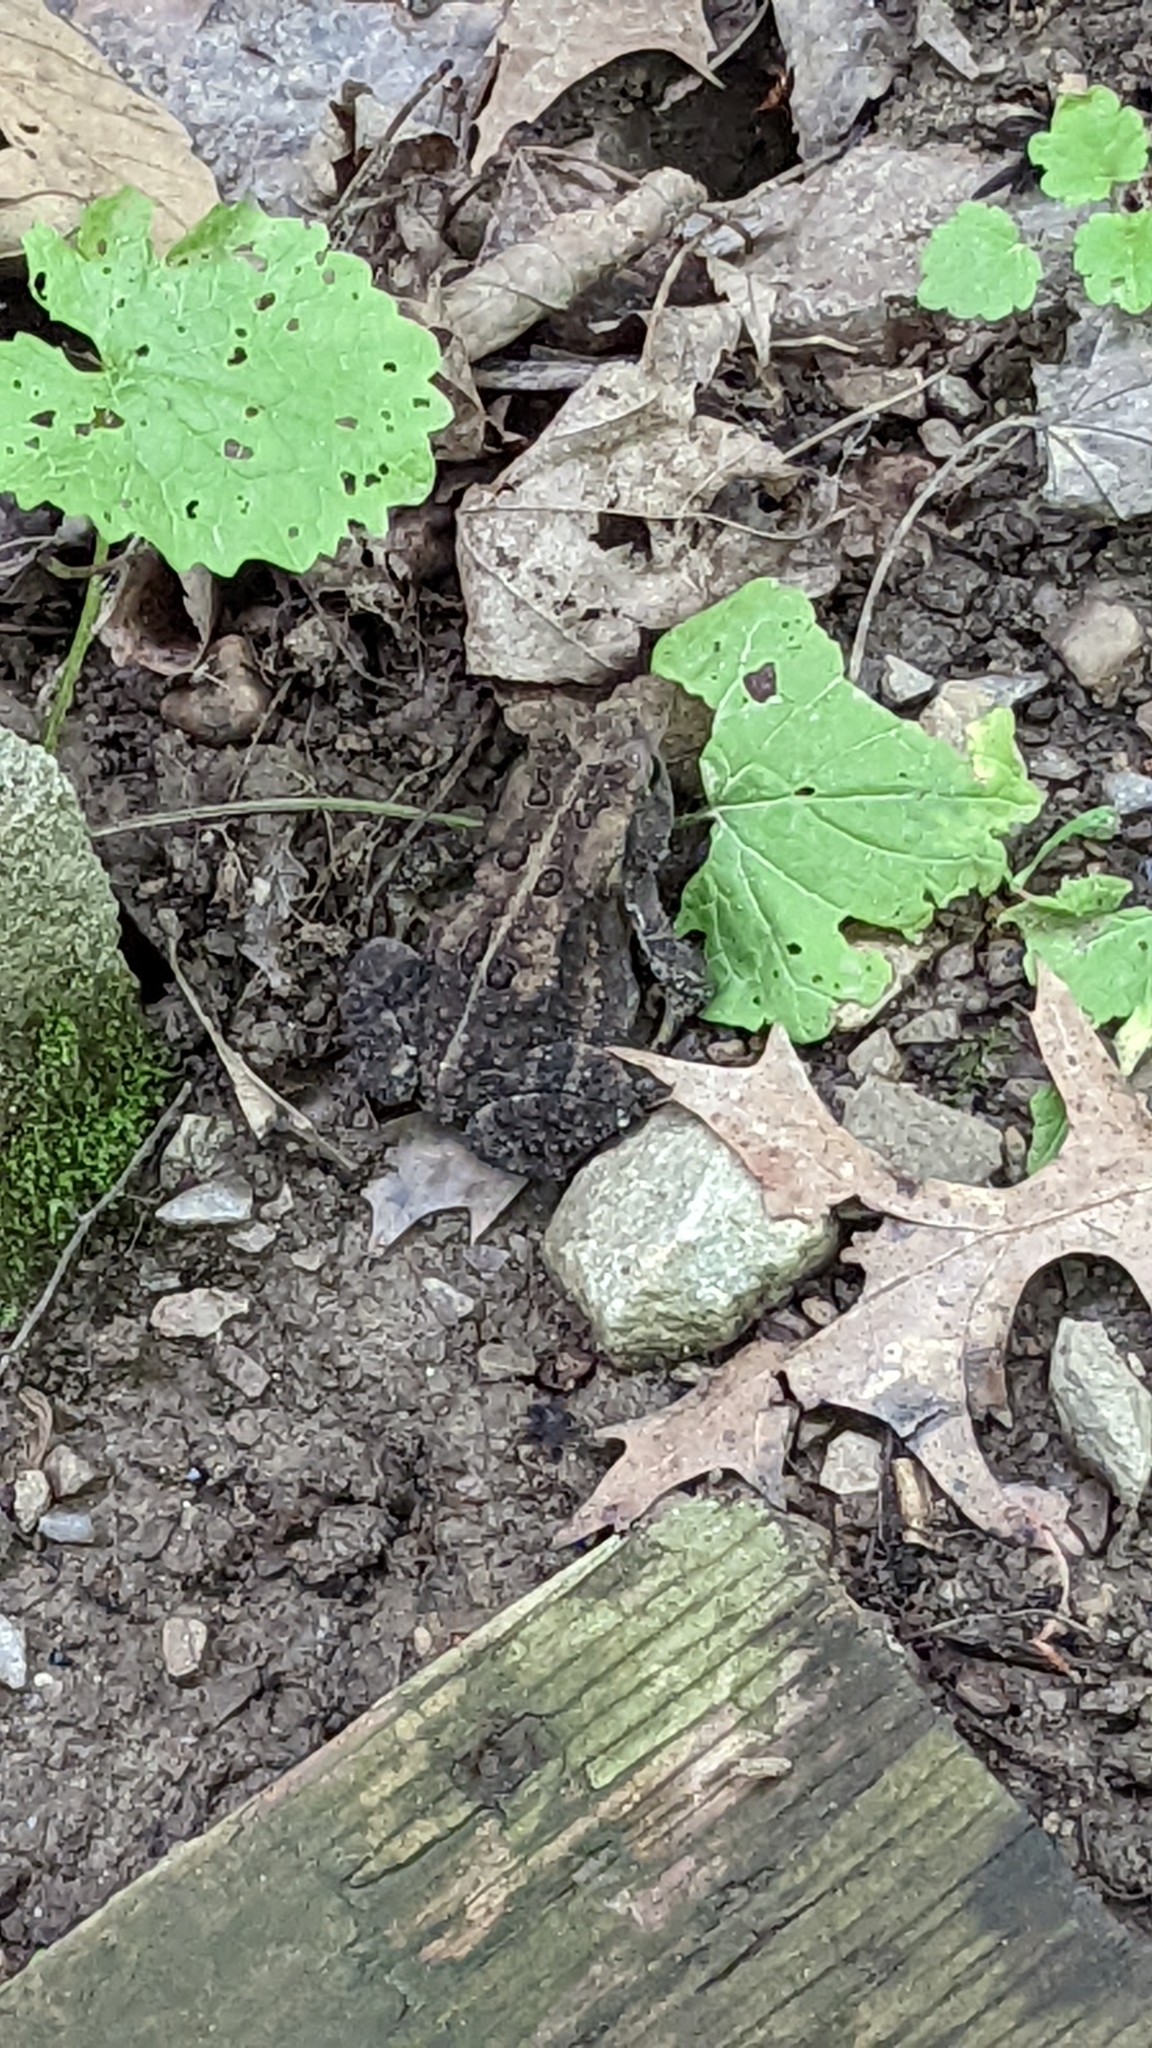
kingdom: Animalia
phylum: Chordata
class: Amphibia
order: Anura
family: Bufonidae
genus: Anaxyrus
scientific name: Anaxyrus americanus
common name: American toad
